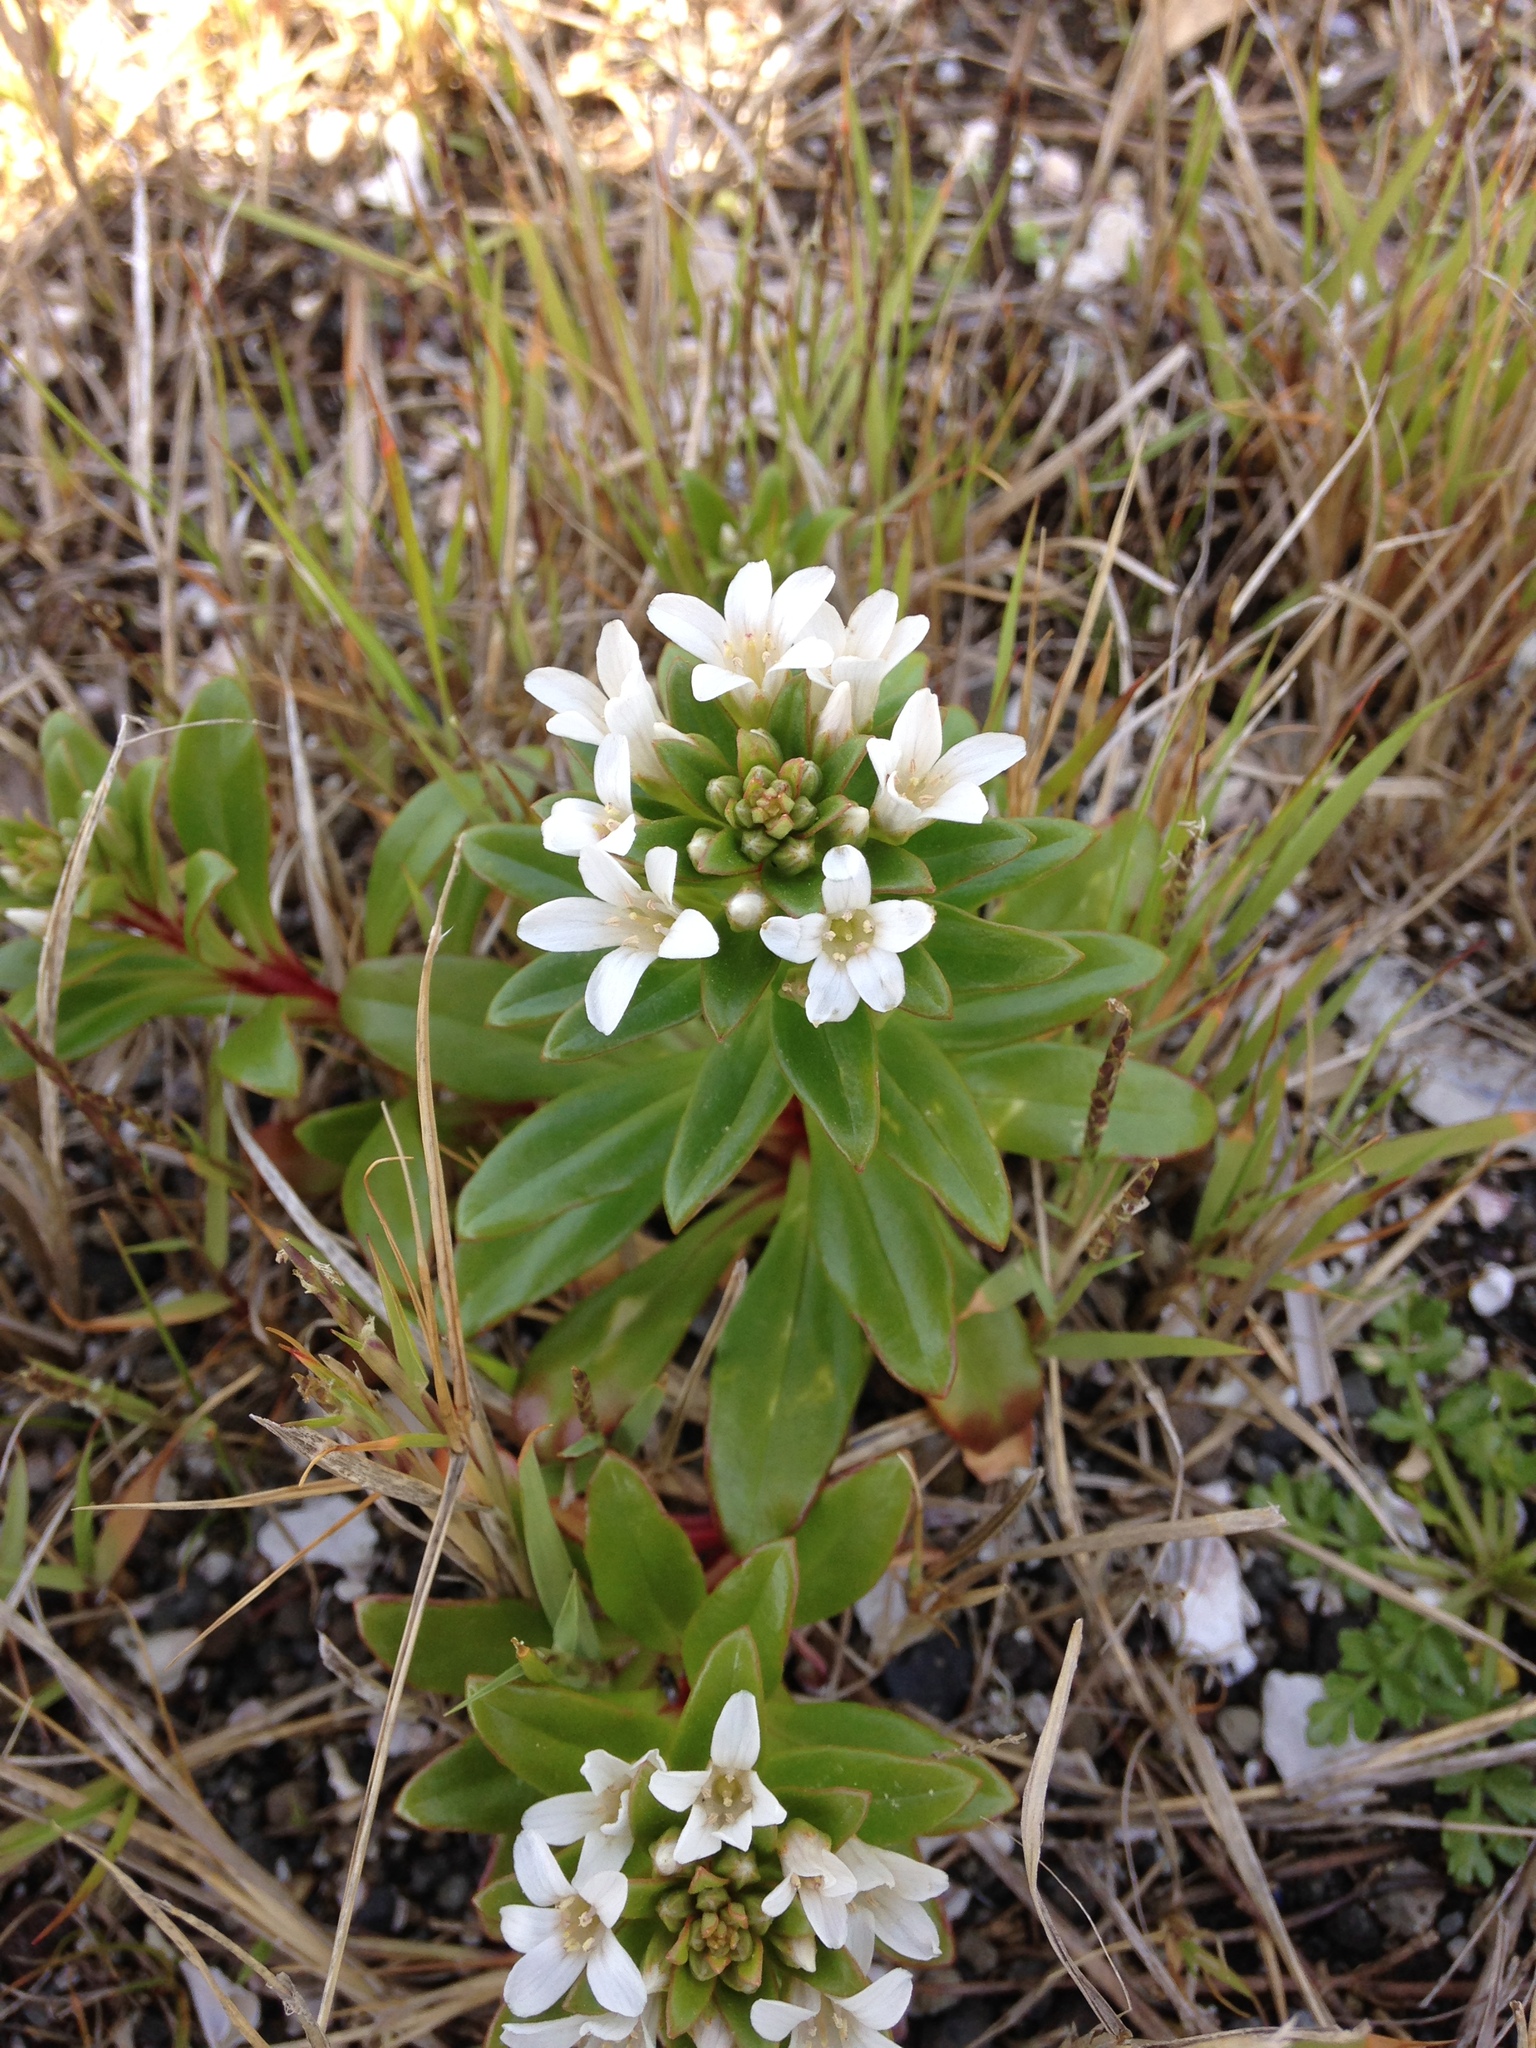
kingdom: Plantae
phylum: Tracheophyta
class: Magnoliopsida
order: Ericales
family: Primulaceae
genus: Lysimachia
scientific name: Lysimachia mauritiana
